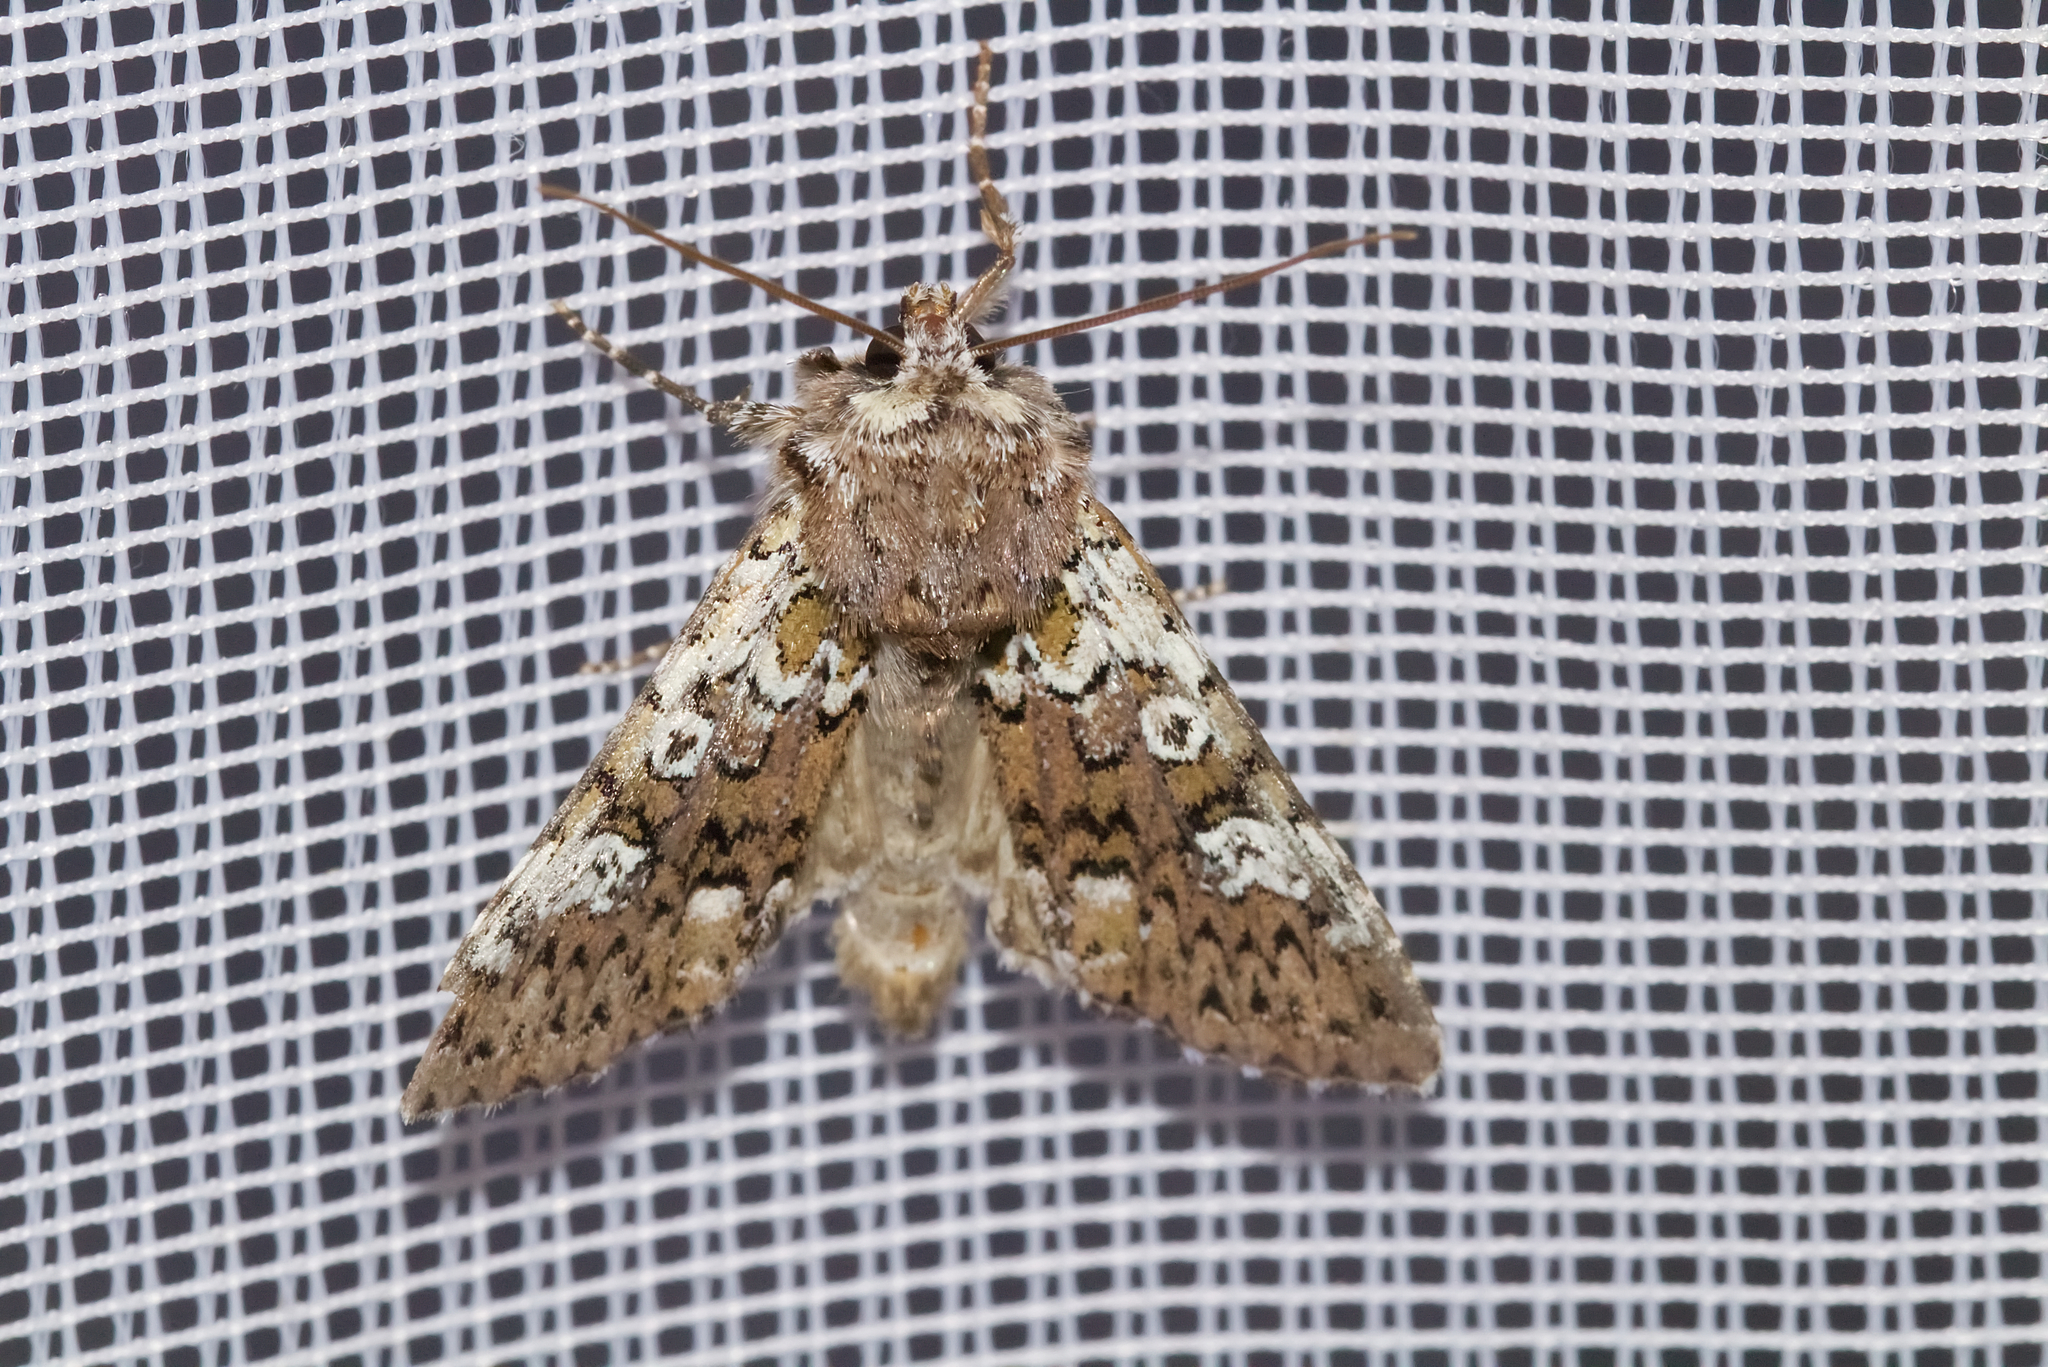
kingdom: Animalia
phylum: Arthropoda
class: Insecta
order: Lepidoptera
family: Noctuidae
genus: Crypsedra
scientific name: Crypsedra gemmea
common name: Cameo
